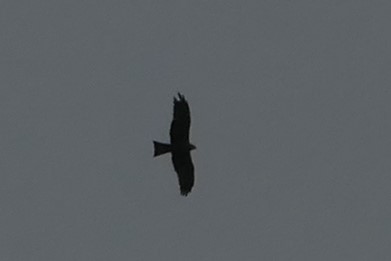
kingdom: Animalia
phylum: Chordata
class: Aves
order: Accipitriformes
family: Accipitridae
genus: Milvus
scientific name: Milvus migrans
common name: Black kite
